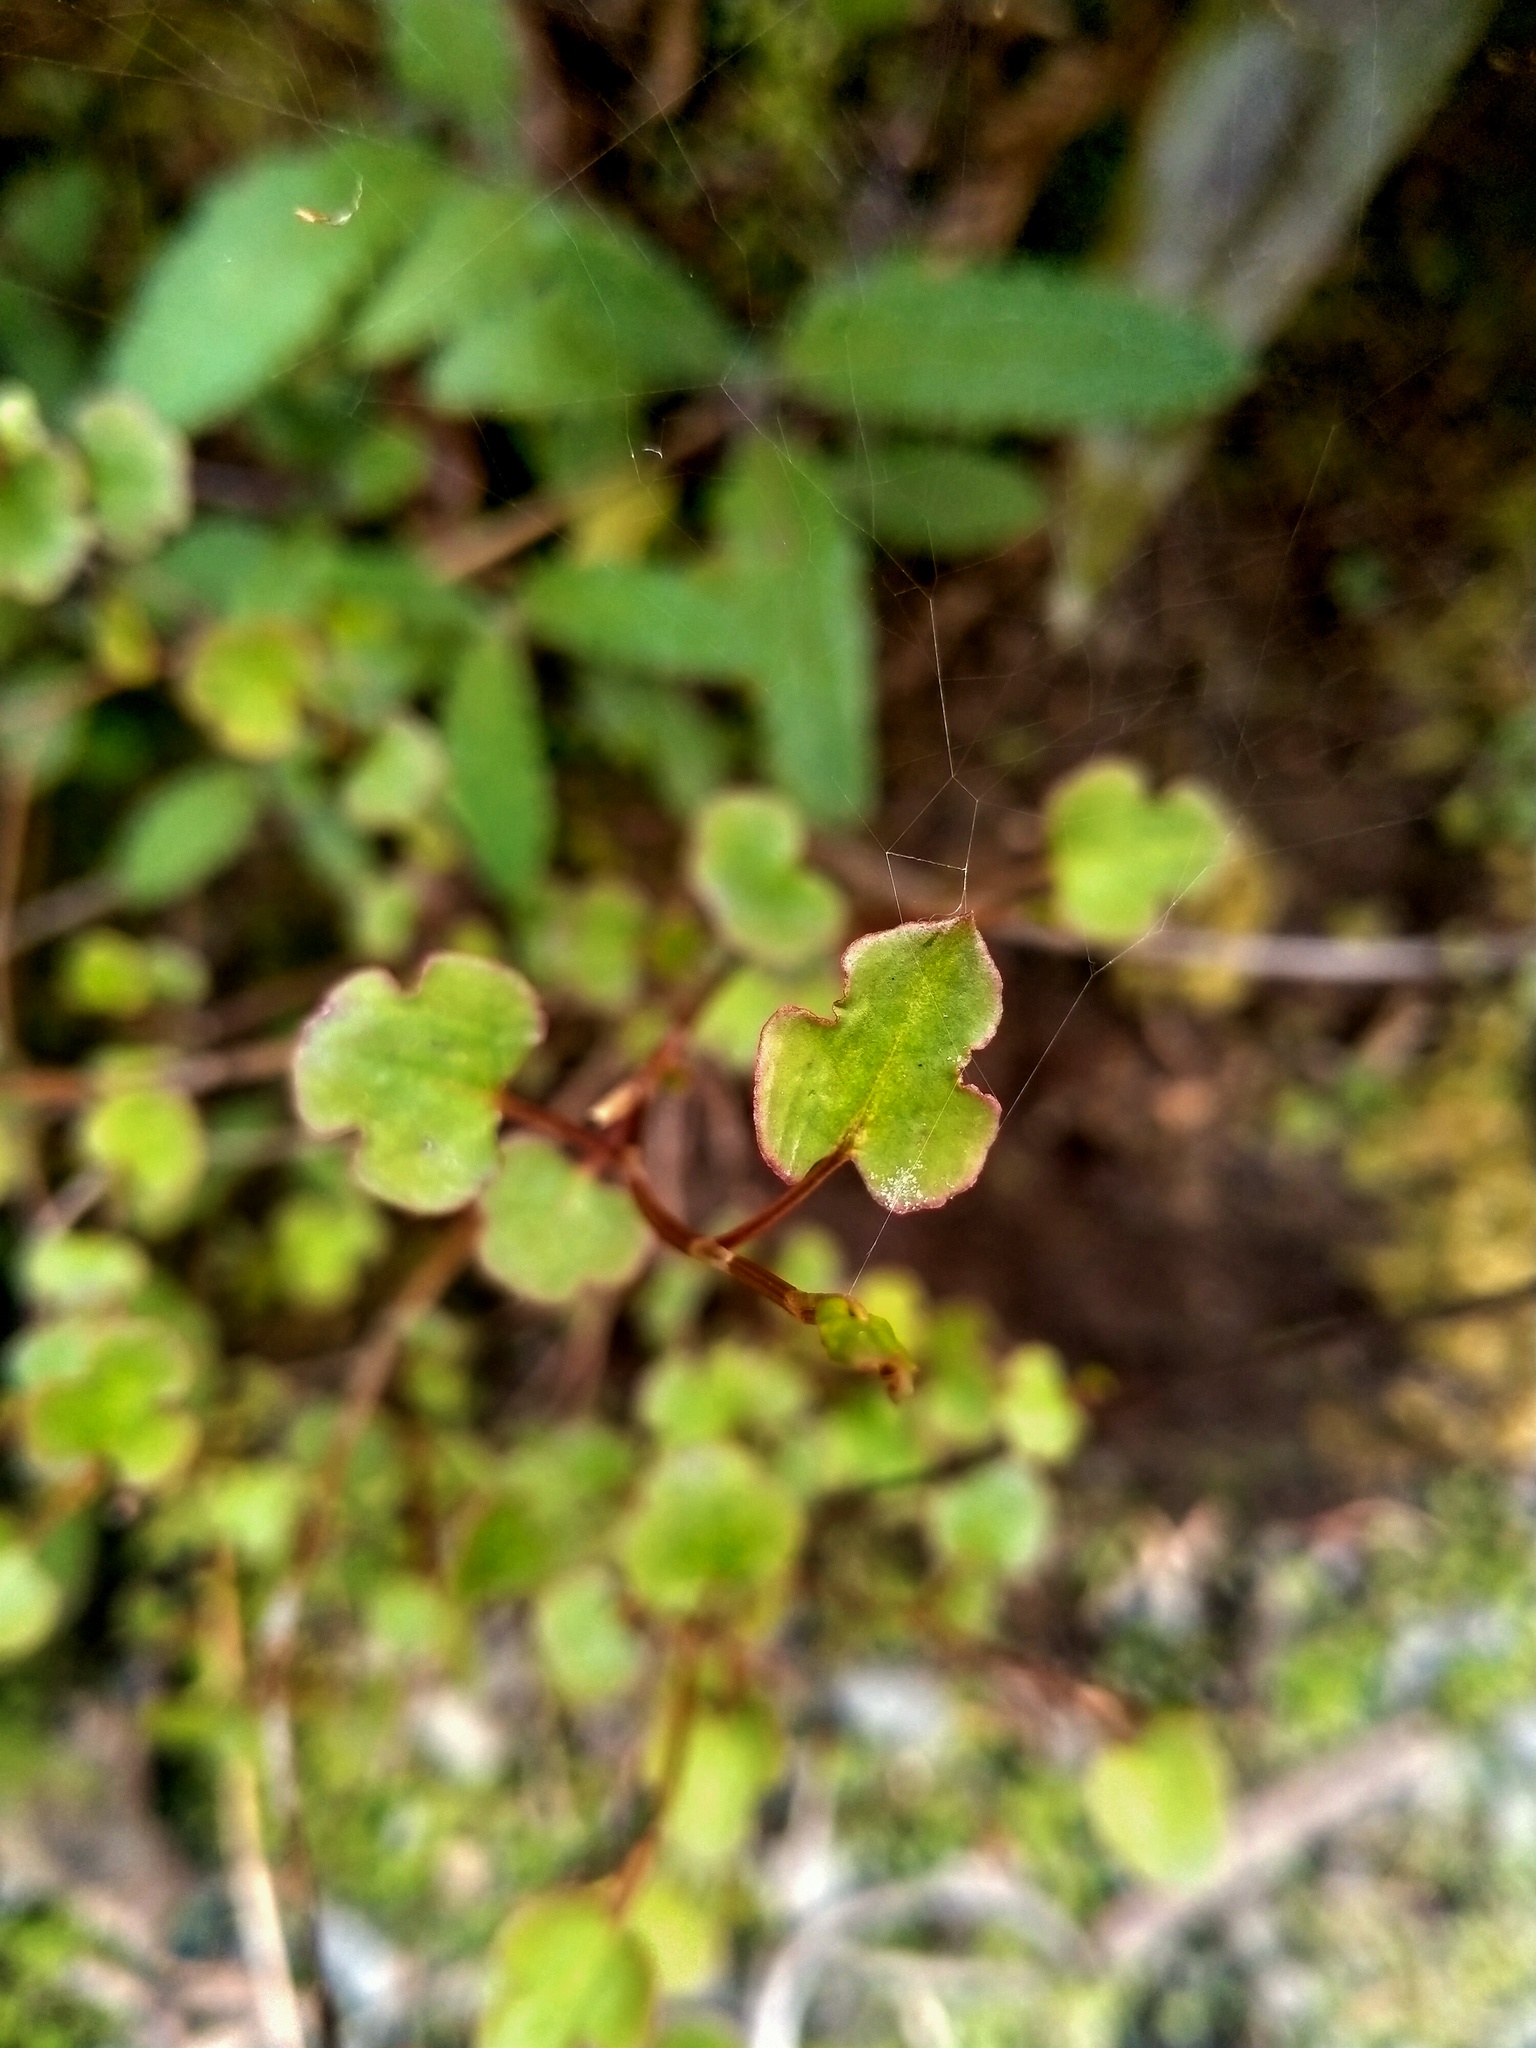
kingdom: Plantae
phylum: Tracheophyta
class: Magnoliopsida
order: Caryophyllales
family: Polygonaceae
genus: Muehlenbeckia
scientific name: Muehlenbeckia australis
